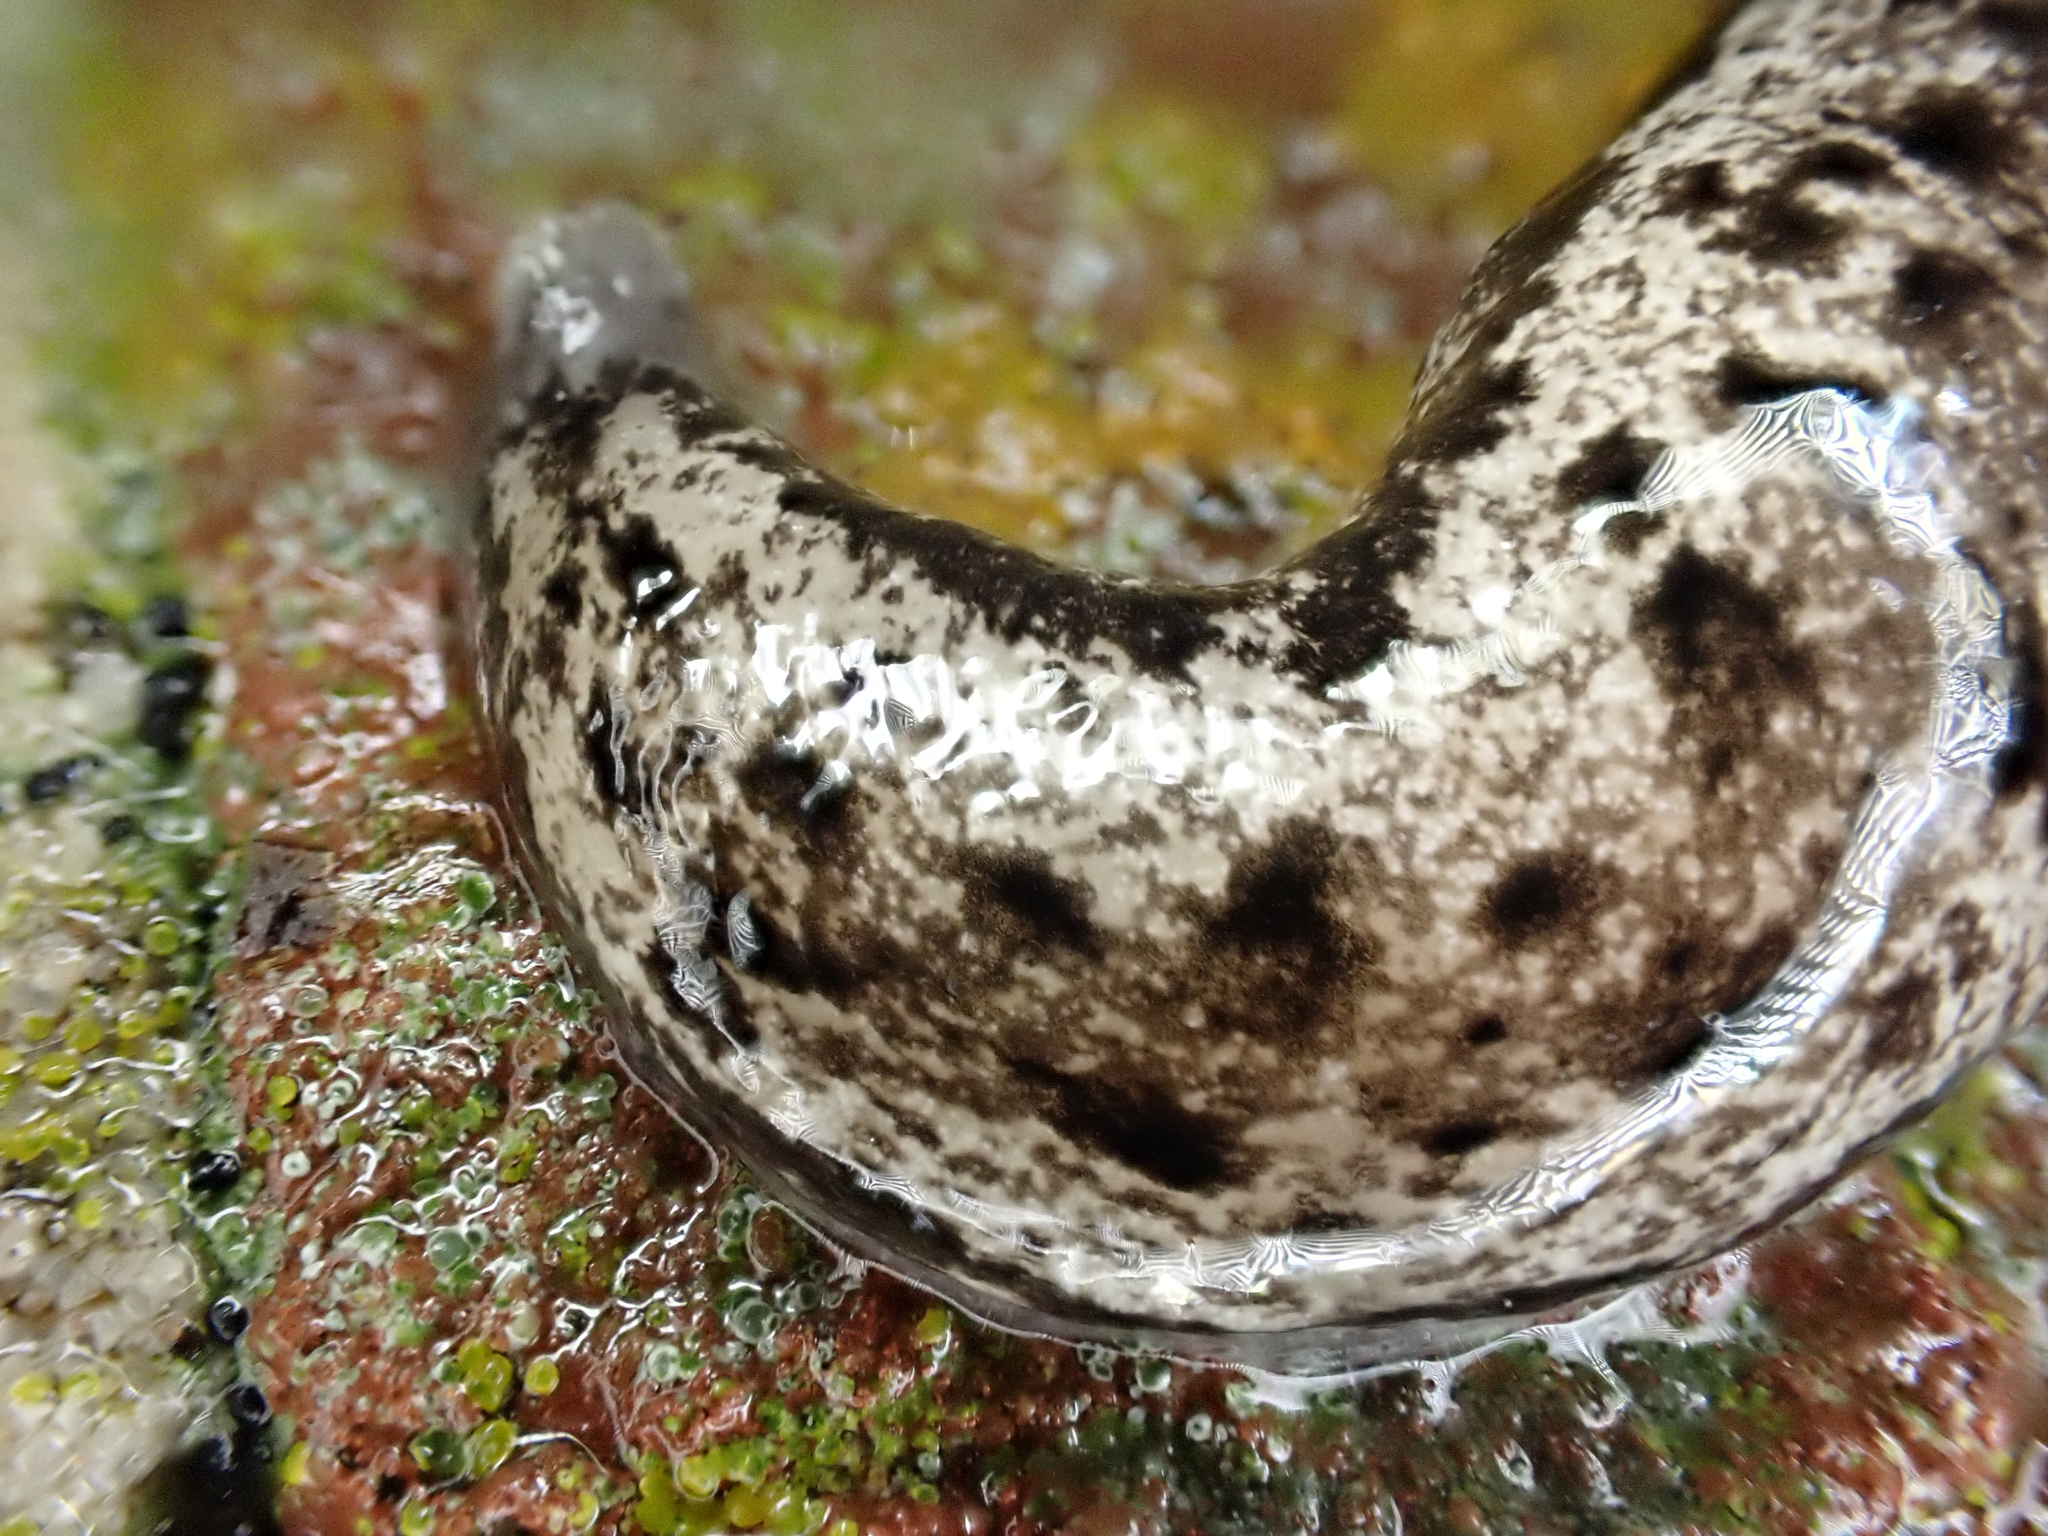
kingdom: Animalia
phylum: Mollusca
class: Gastropoda
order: Stylommatophora
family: Philomycidae
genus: Megapallifera
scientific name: Megapallifera mutabilis
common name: Changeable mantleslug
